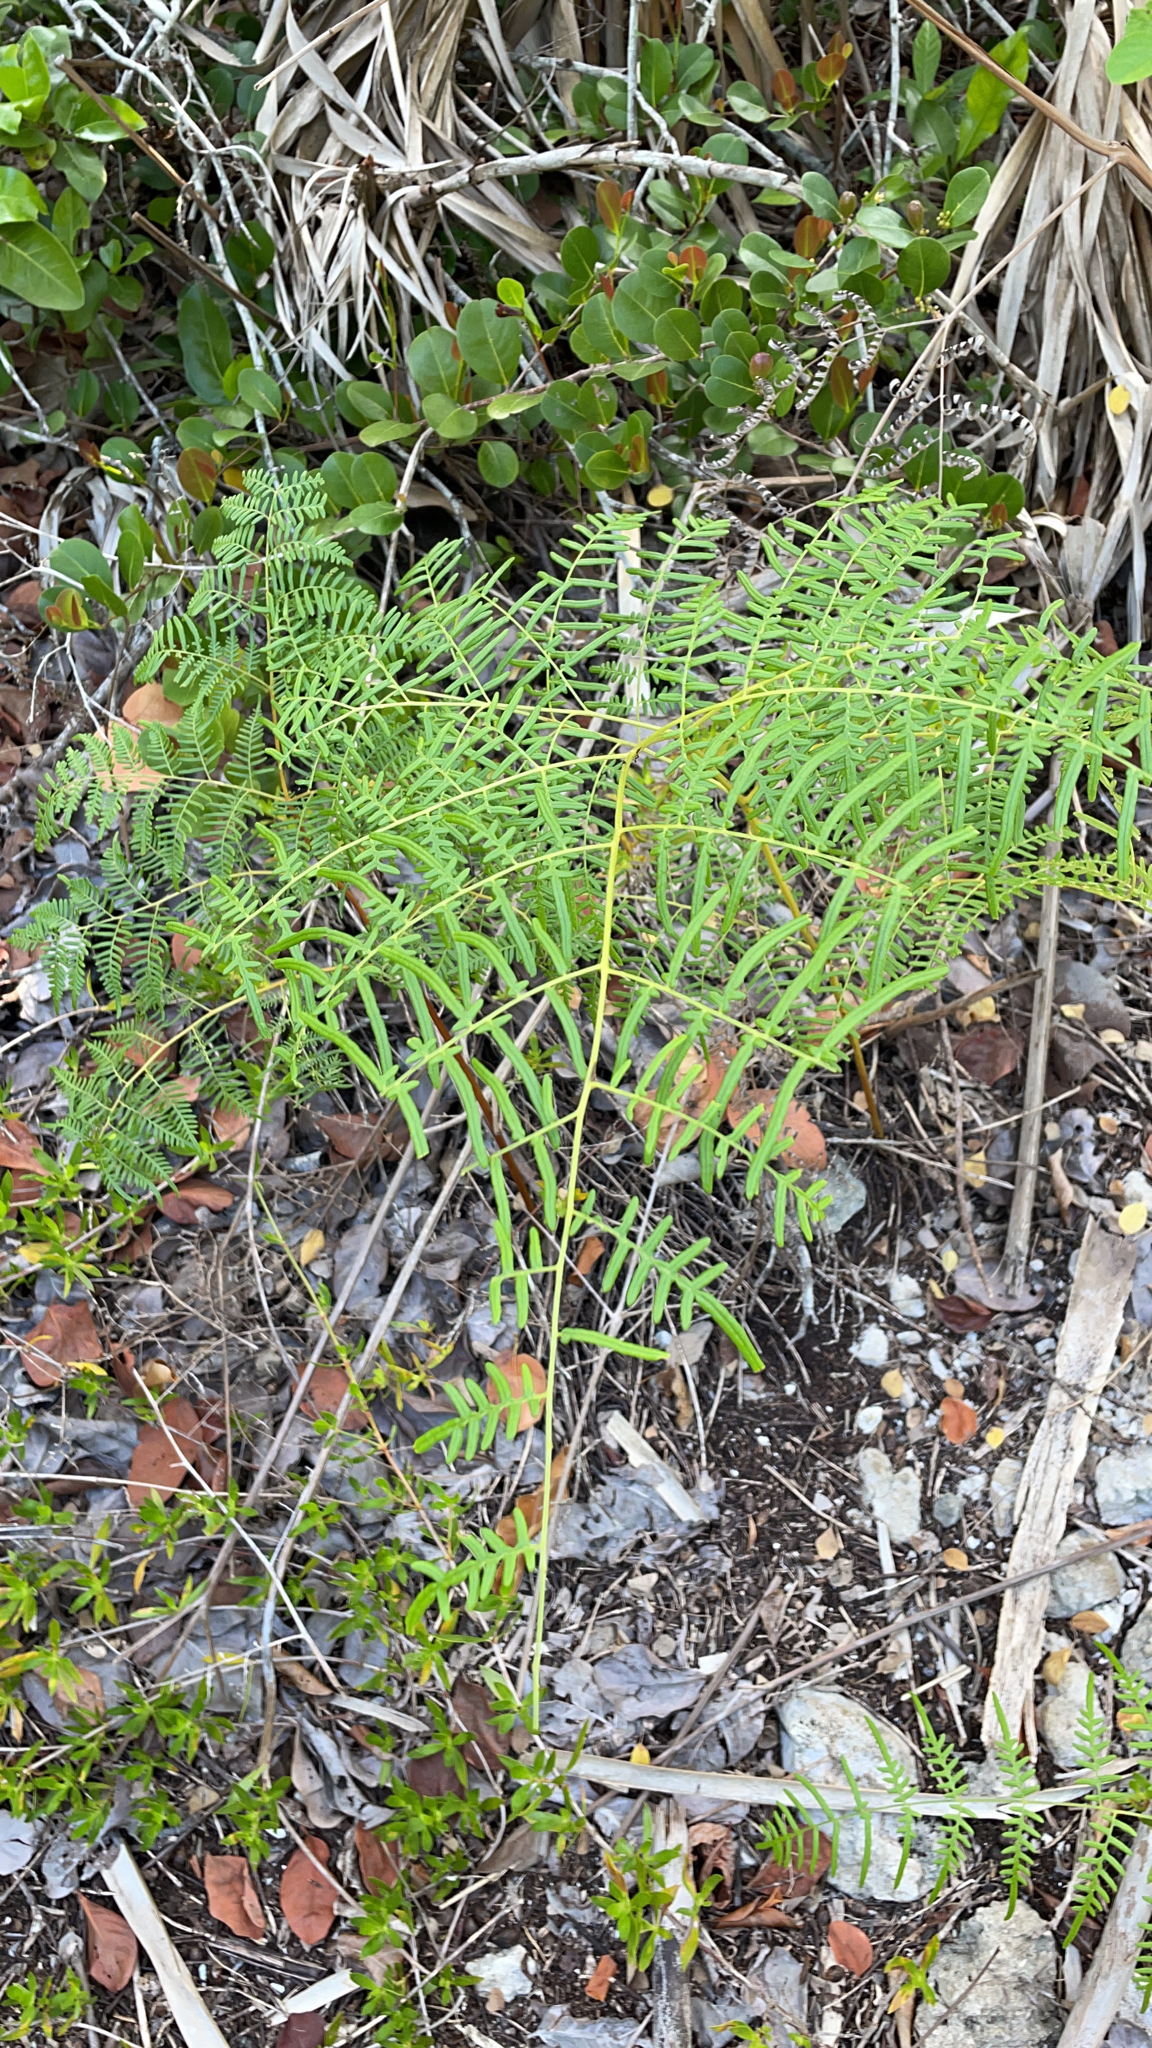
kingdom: Plantae
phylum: Tracheophyta
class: Polypodiopsida
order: Polypodiales
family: Dennstaedtiaceae
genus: Pteridium
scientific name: Pteridium caudatum
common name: Southern bracken fern
